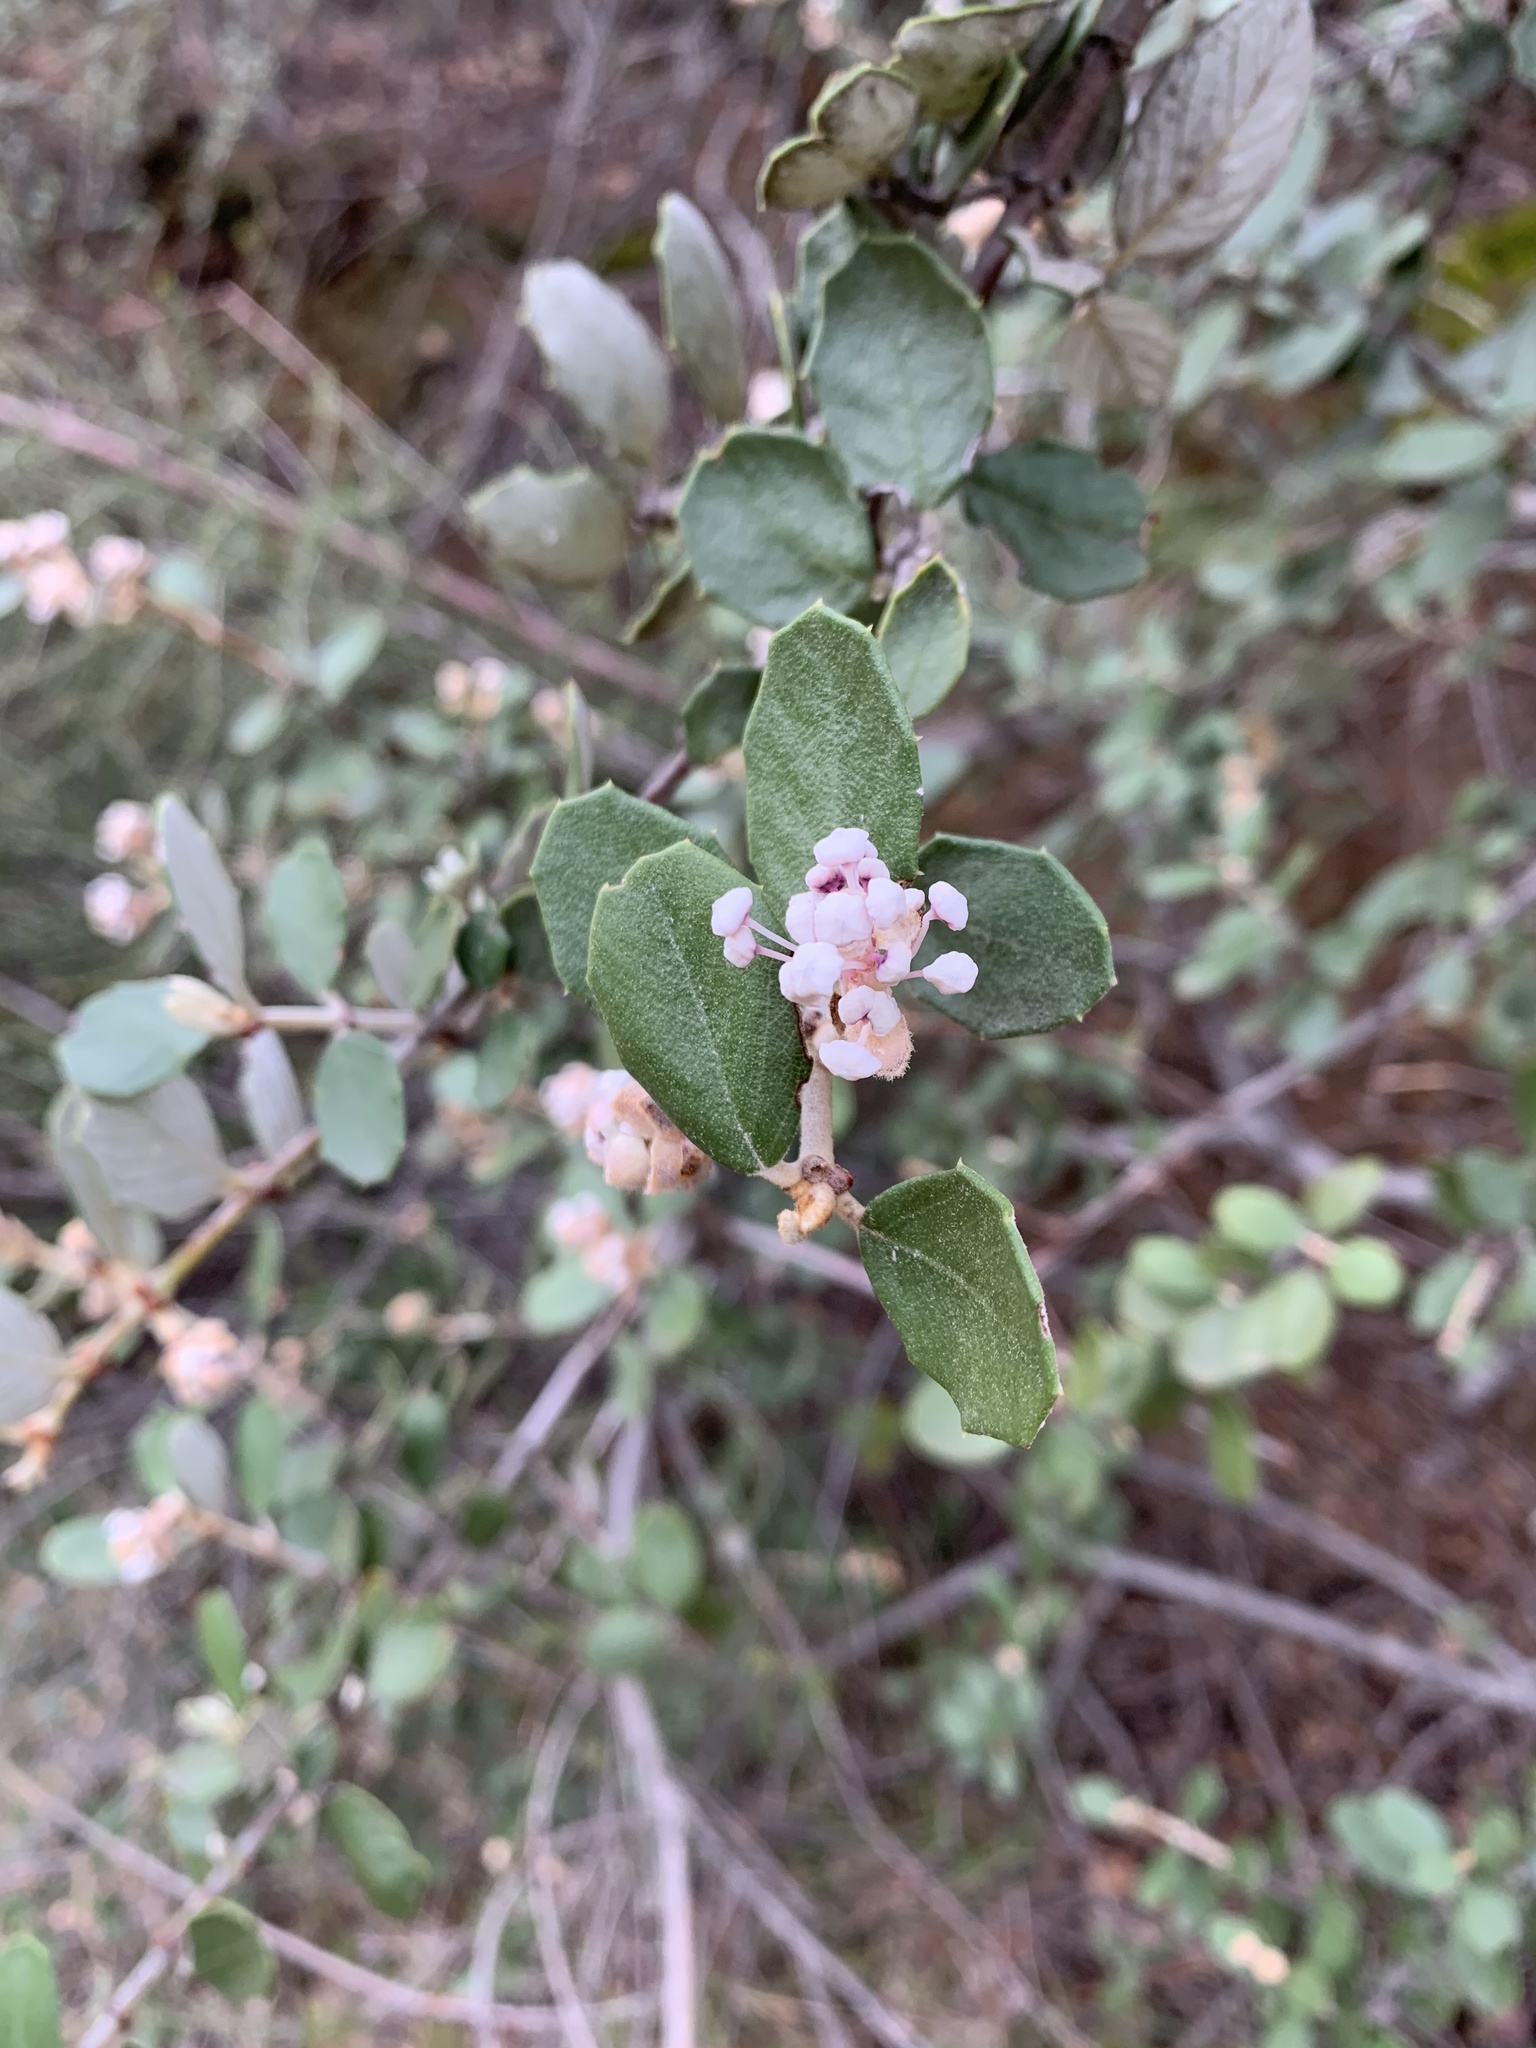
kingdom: Plantae
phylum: Tracheophyta
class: Magnoliopsida
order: Rosales
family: Rhamnaceae
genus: Ceanothus
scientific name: Ceanothus crassifolius
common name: Hoaryleaf ceanothus
